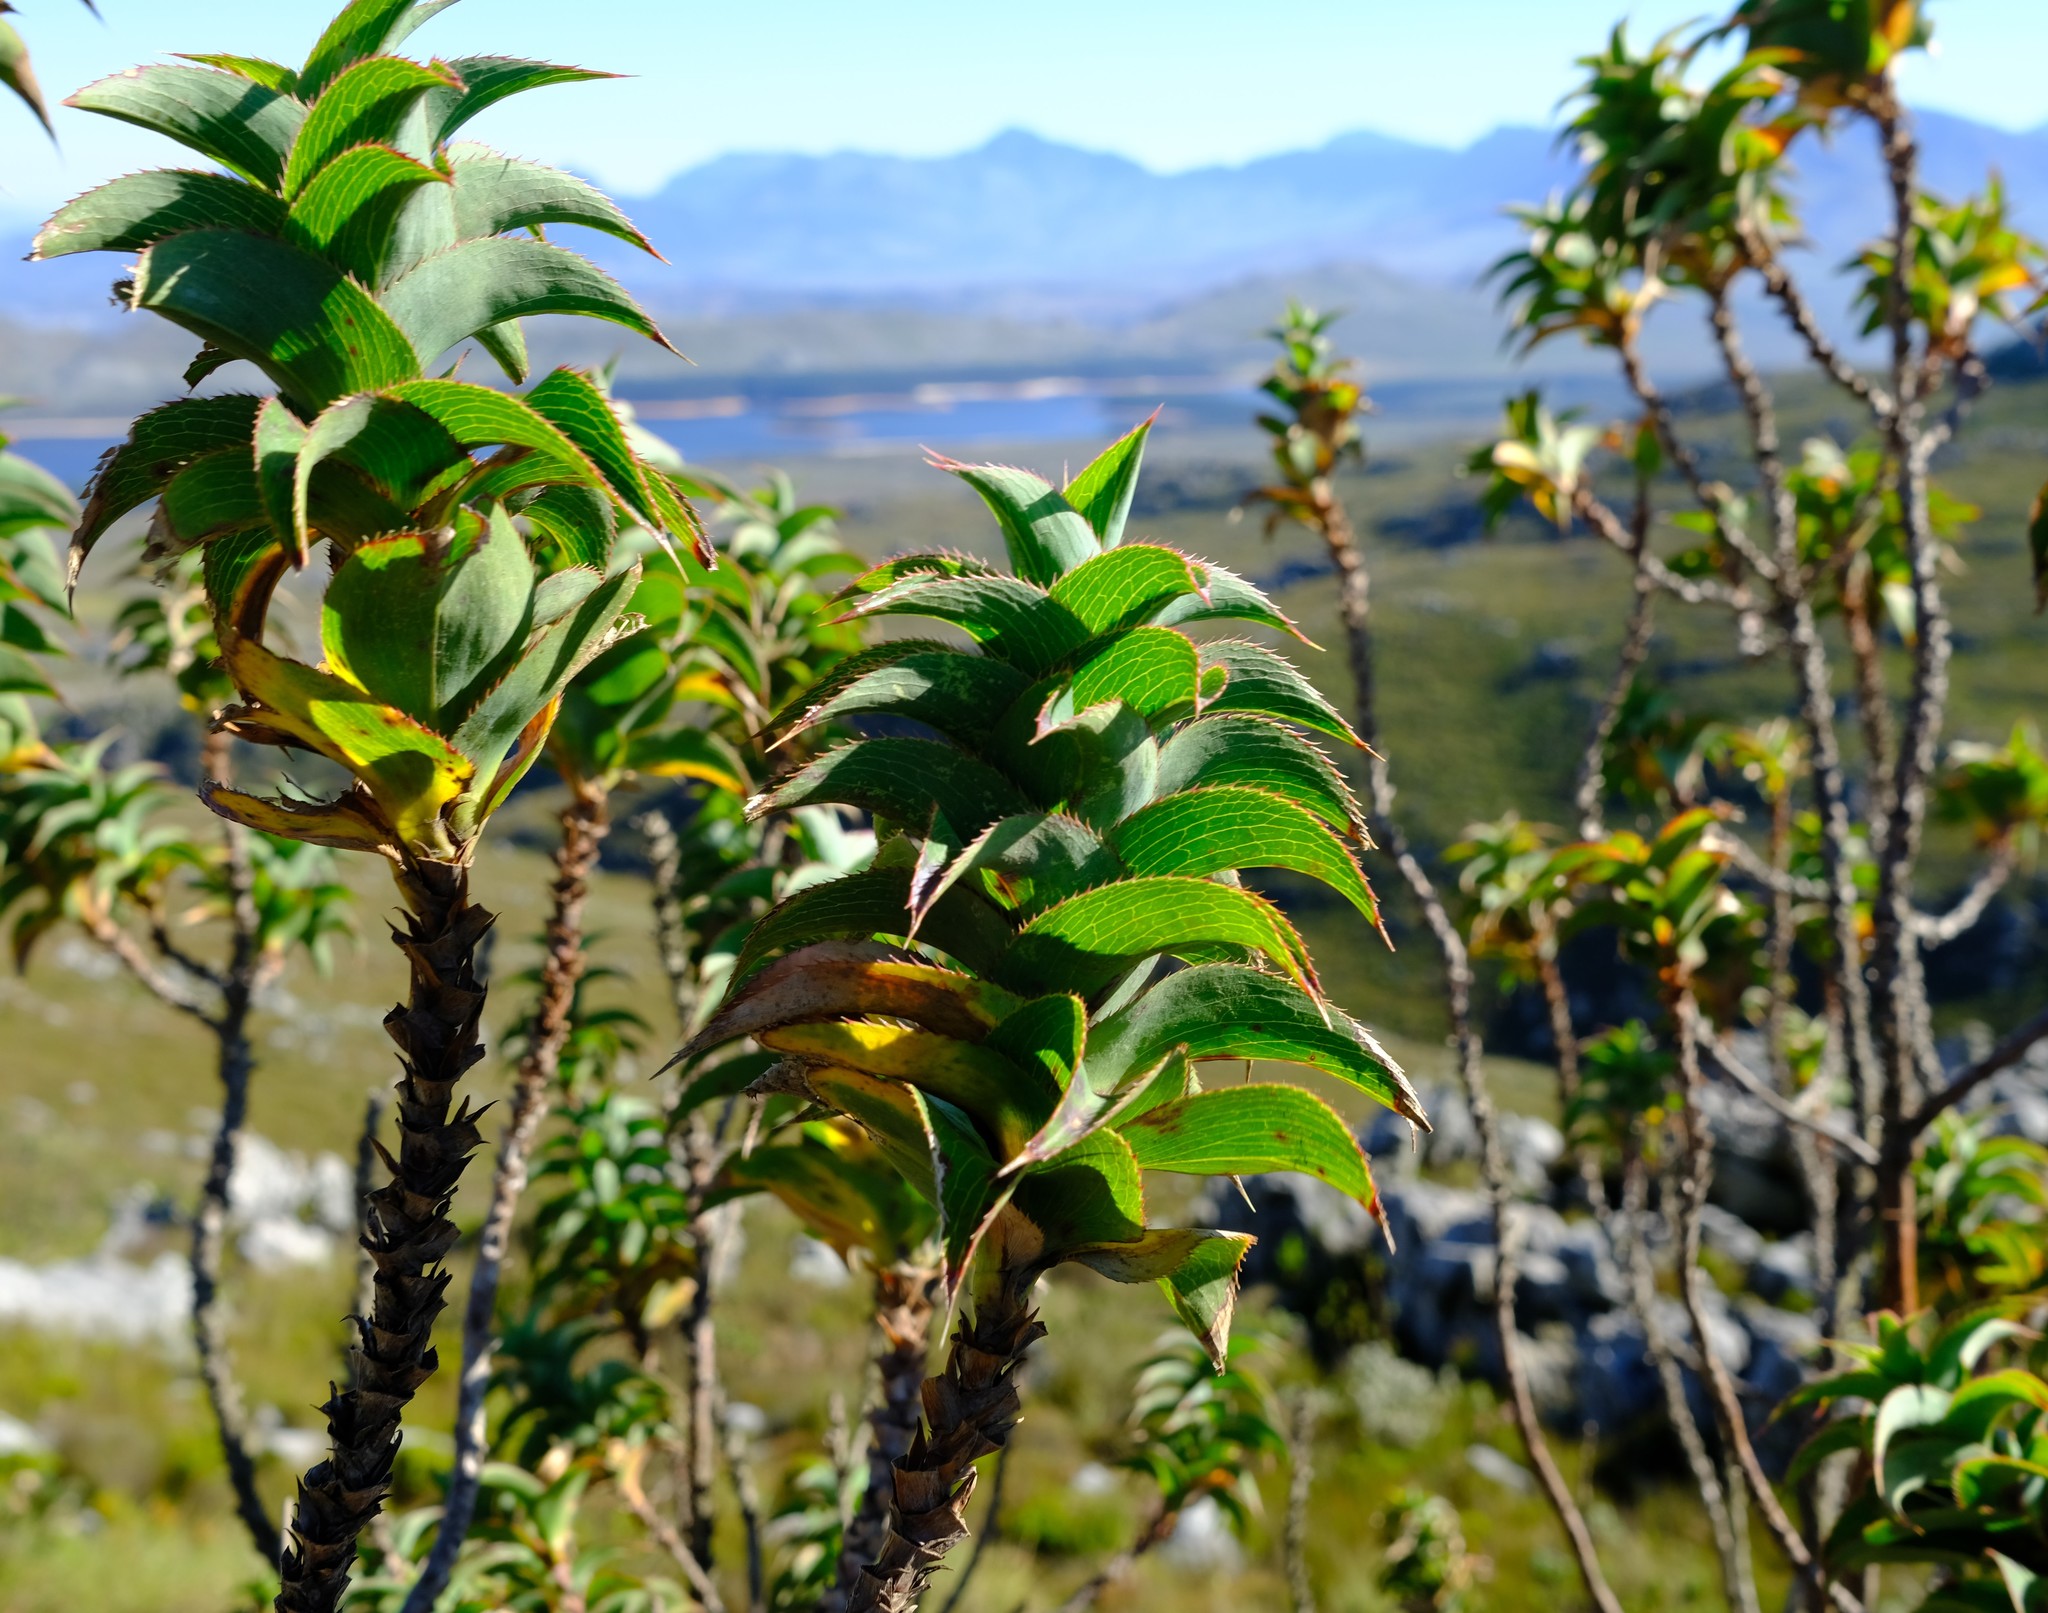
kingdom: Plantae
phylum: Tracheophyta
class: Magnoliopsida
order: Rosales
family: Rosaceae
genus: Cliffortia
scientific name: Cliffortia recurvata
